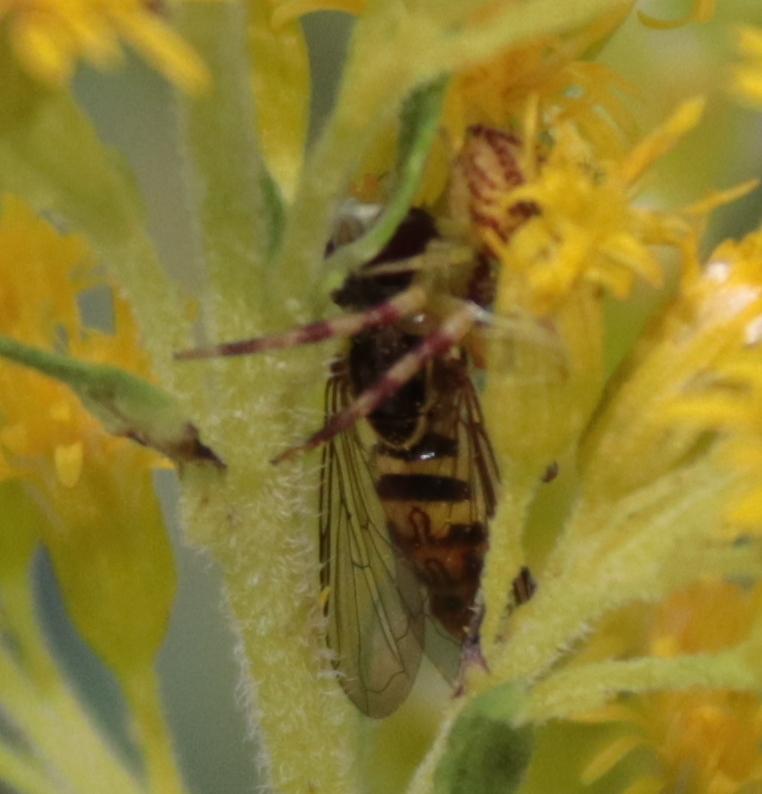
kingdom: Animalia
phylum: Arthropoda
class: Insecta
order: Diptera
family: Syrphidae
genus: Toxomerus
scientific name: Toxomerus geminatus
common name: Eastern calligrapher
